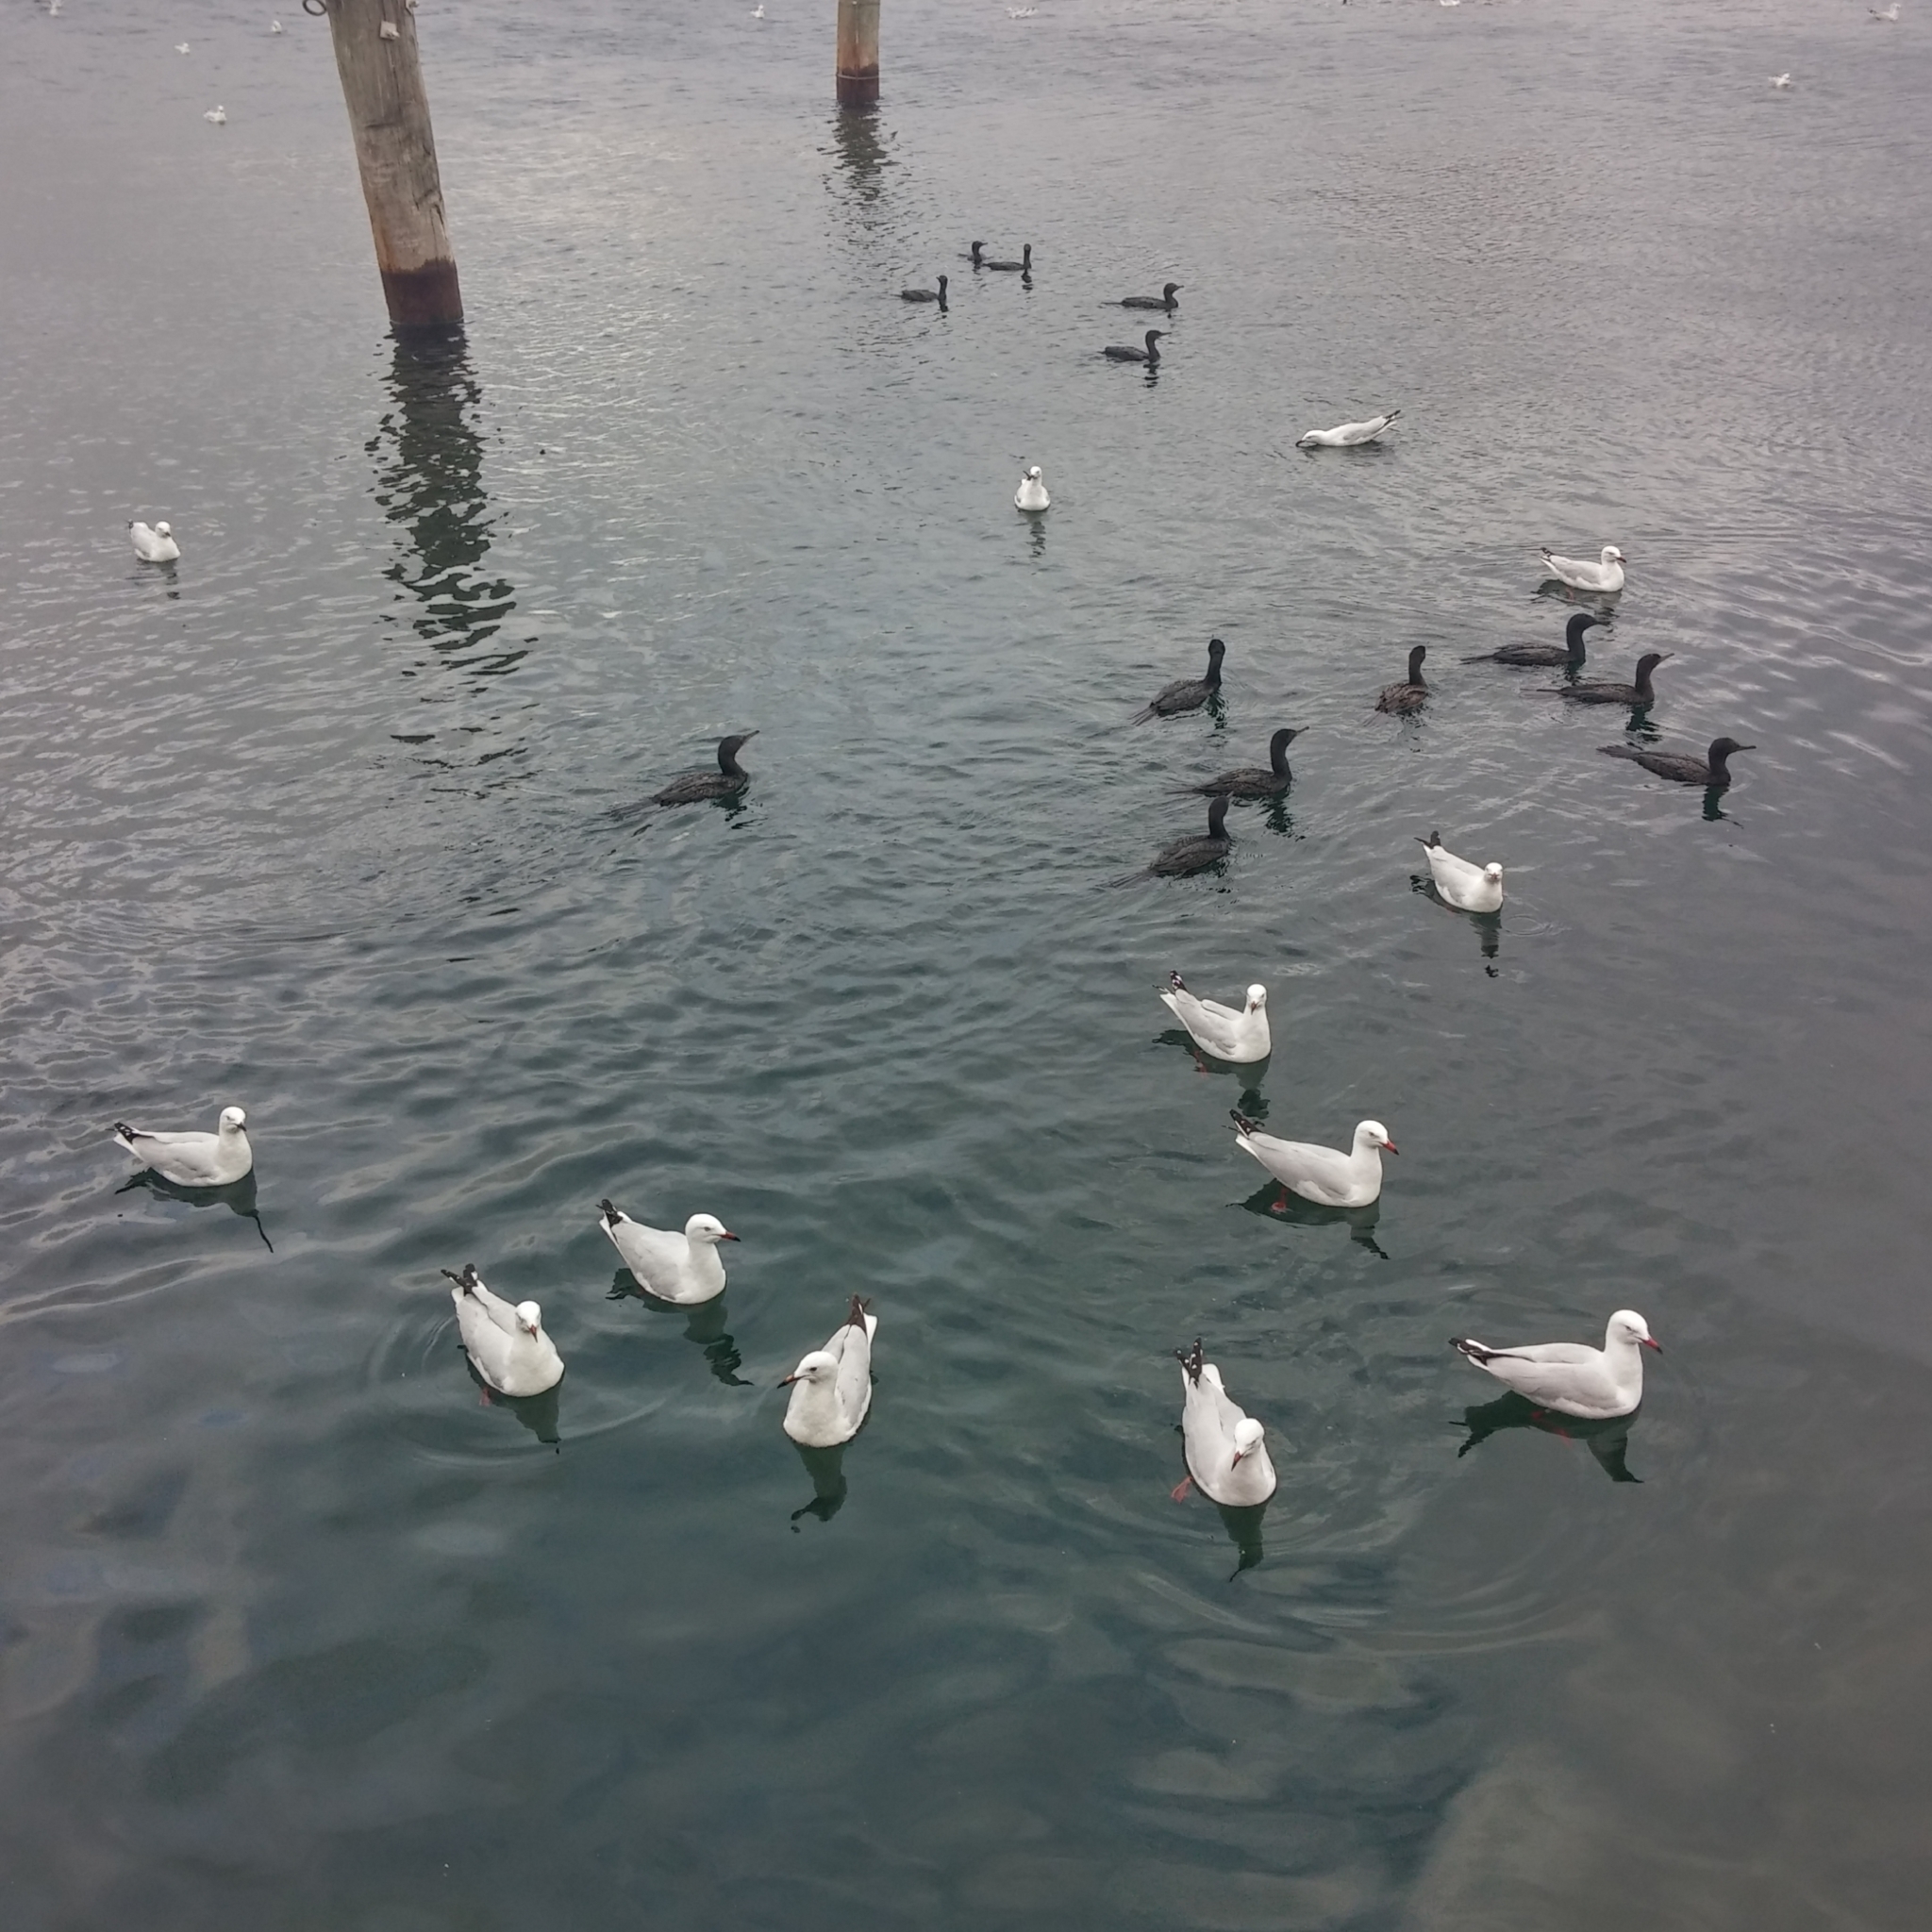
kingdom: Animalia
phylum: Chordata
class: Aves
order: Charadriiformes
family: Laridae
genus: Chroicocephalus
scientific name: Chroicocephalus novaehollandiae
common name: Silver gull
